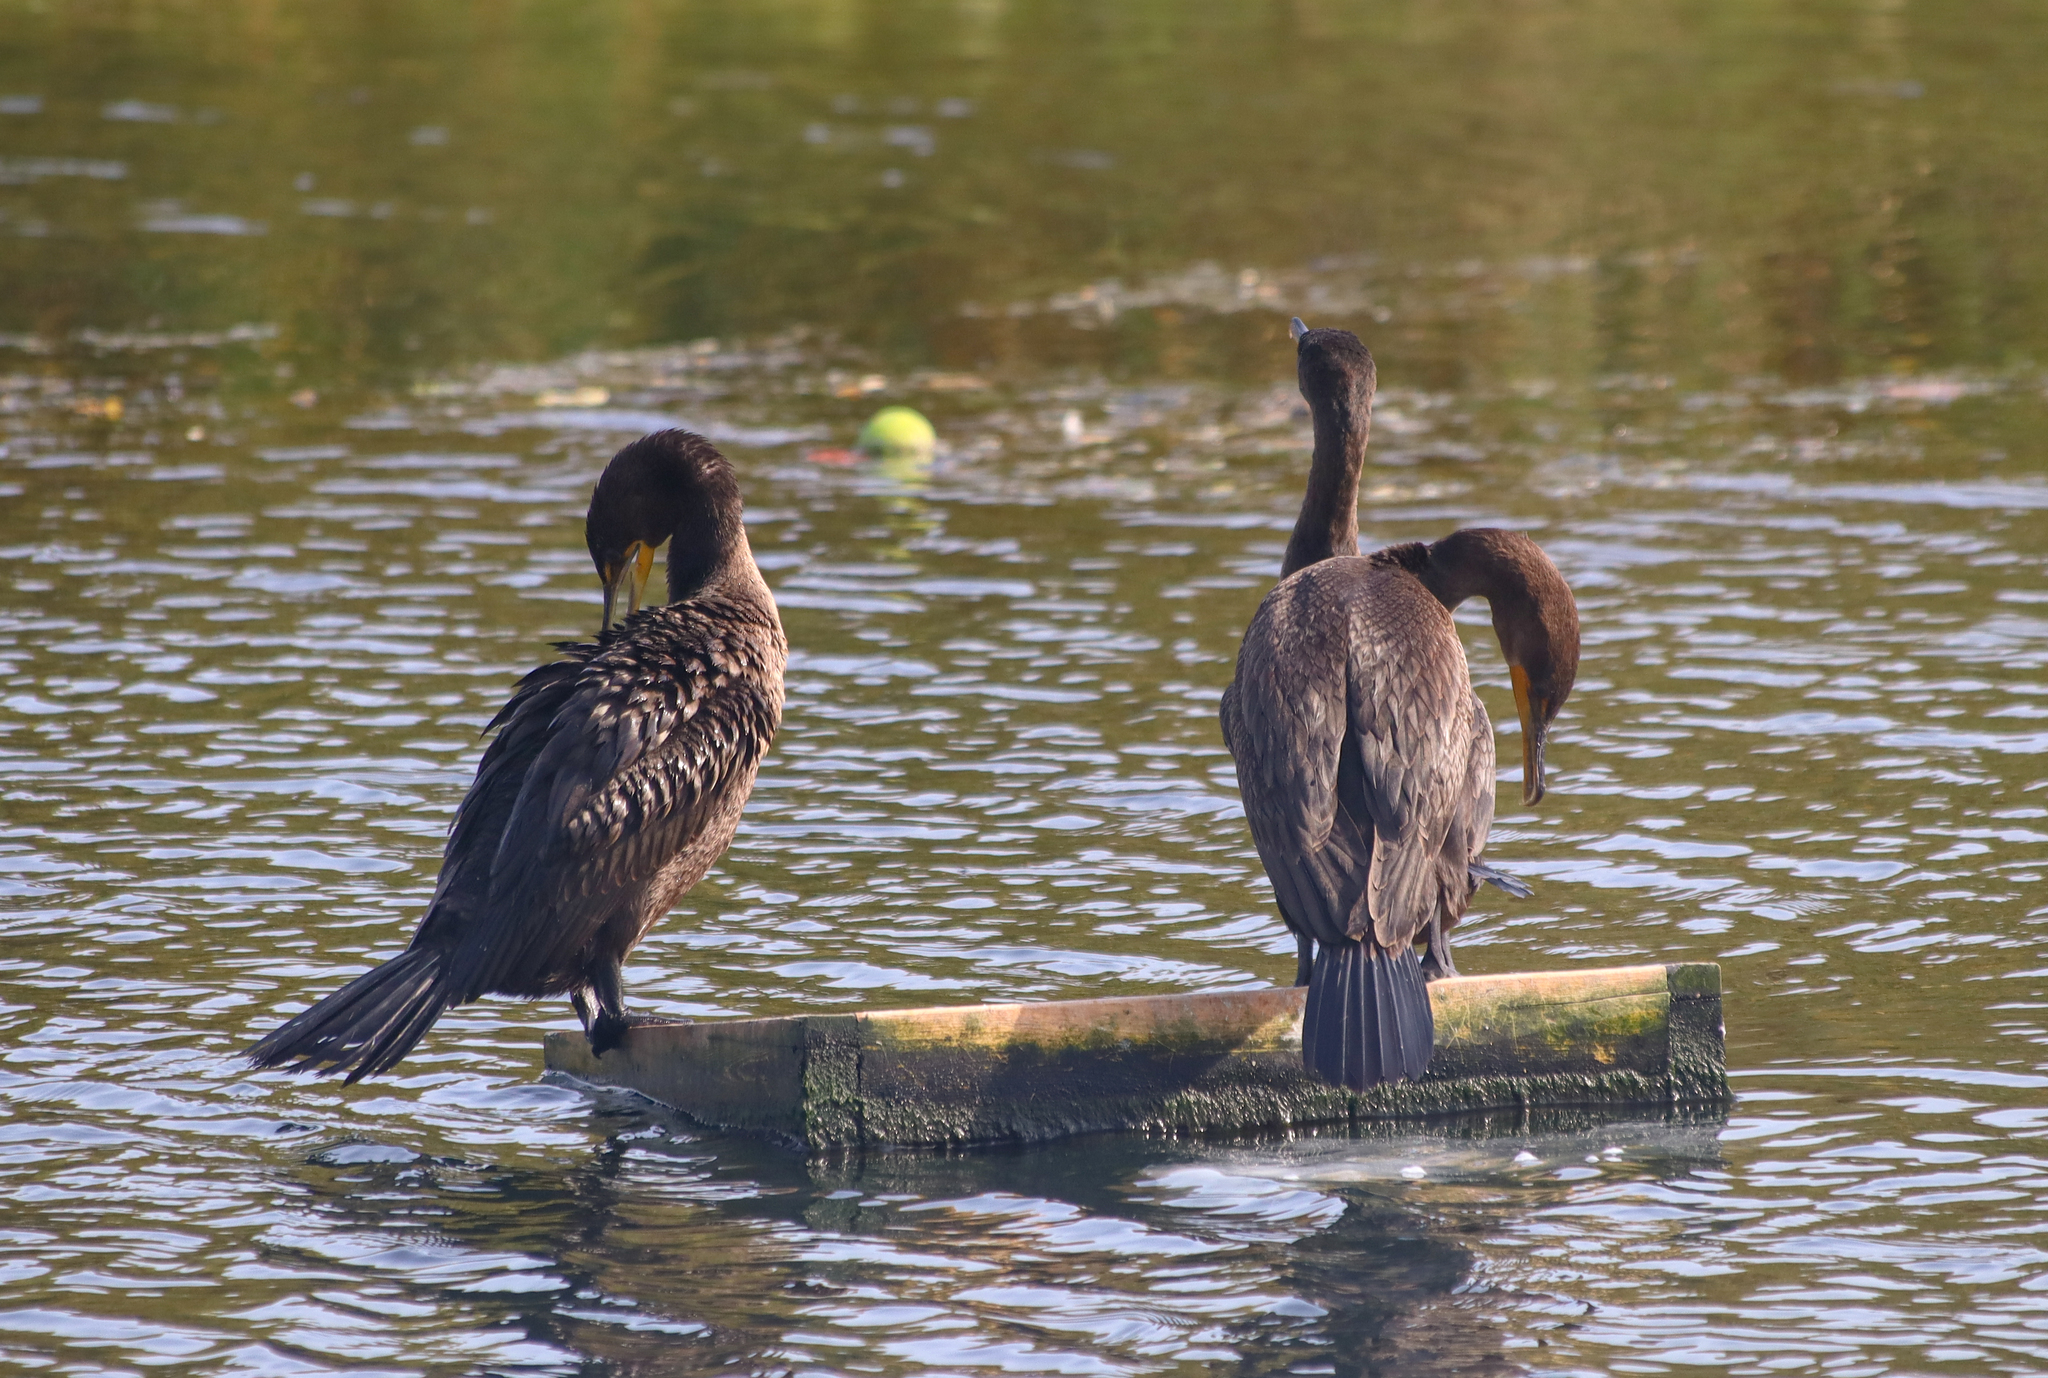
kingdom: Animalia
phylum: Chordata
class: Aves
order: Suliformes
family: Phalacrocoracidae
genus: Phalacrocorax
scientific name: Phalacrocorax auritus
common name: Double-crested cormorant
